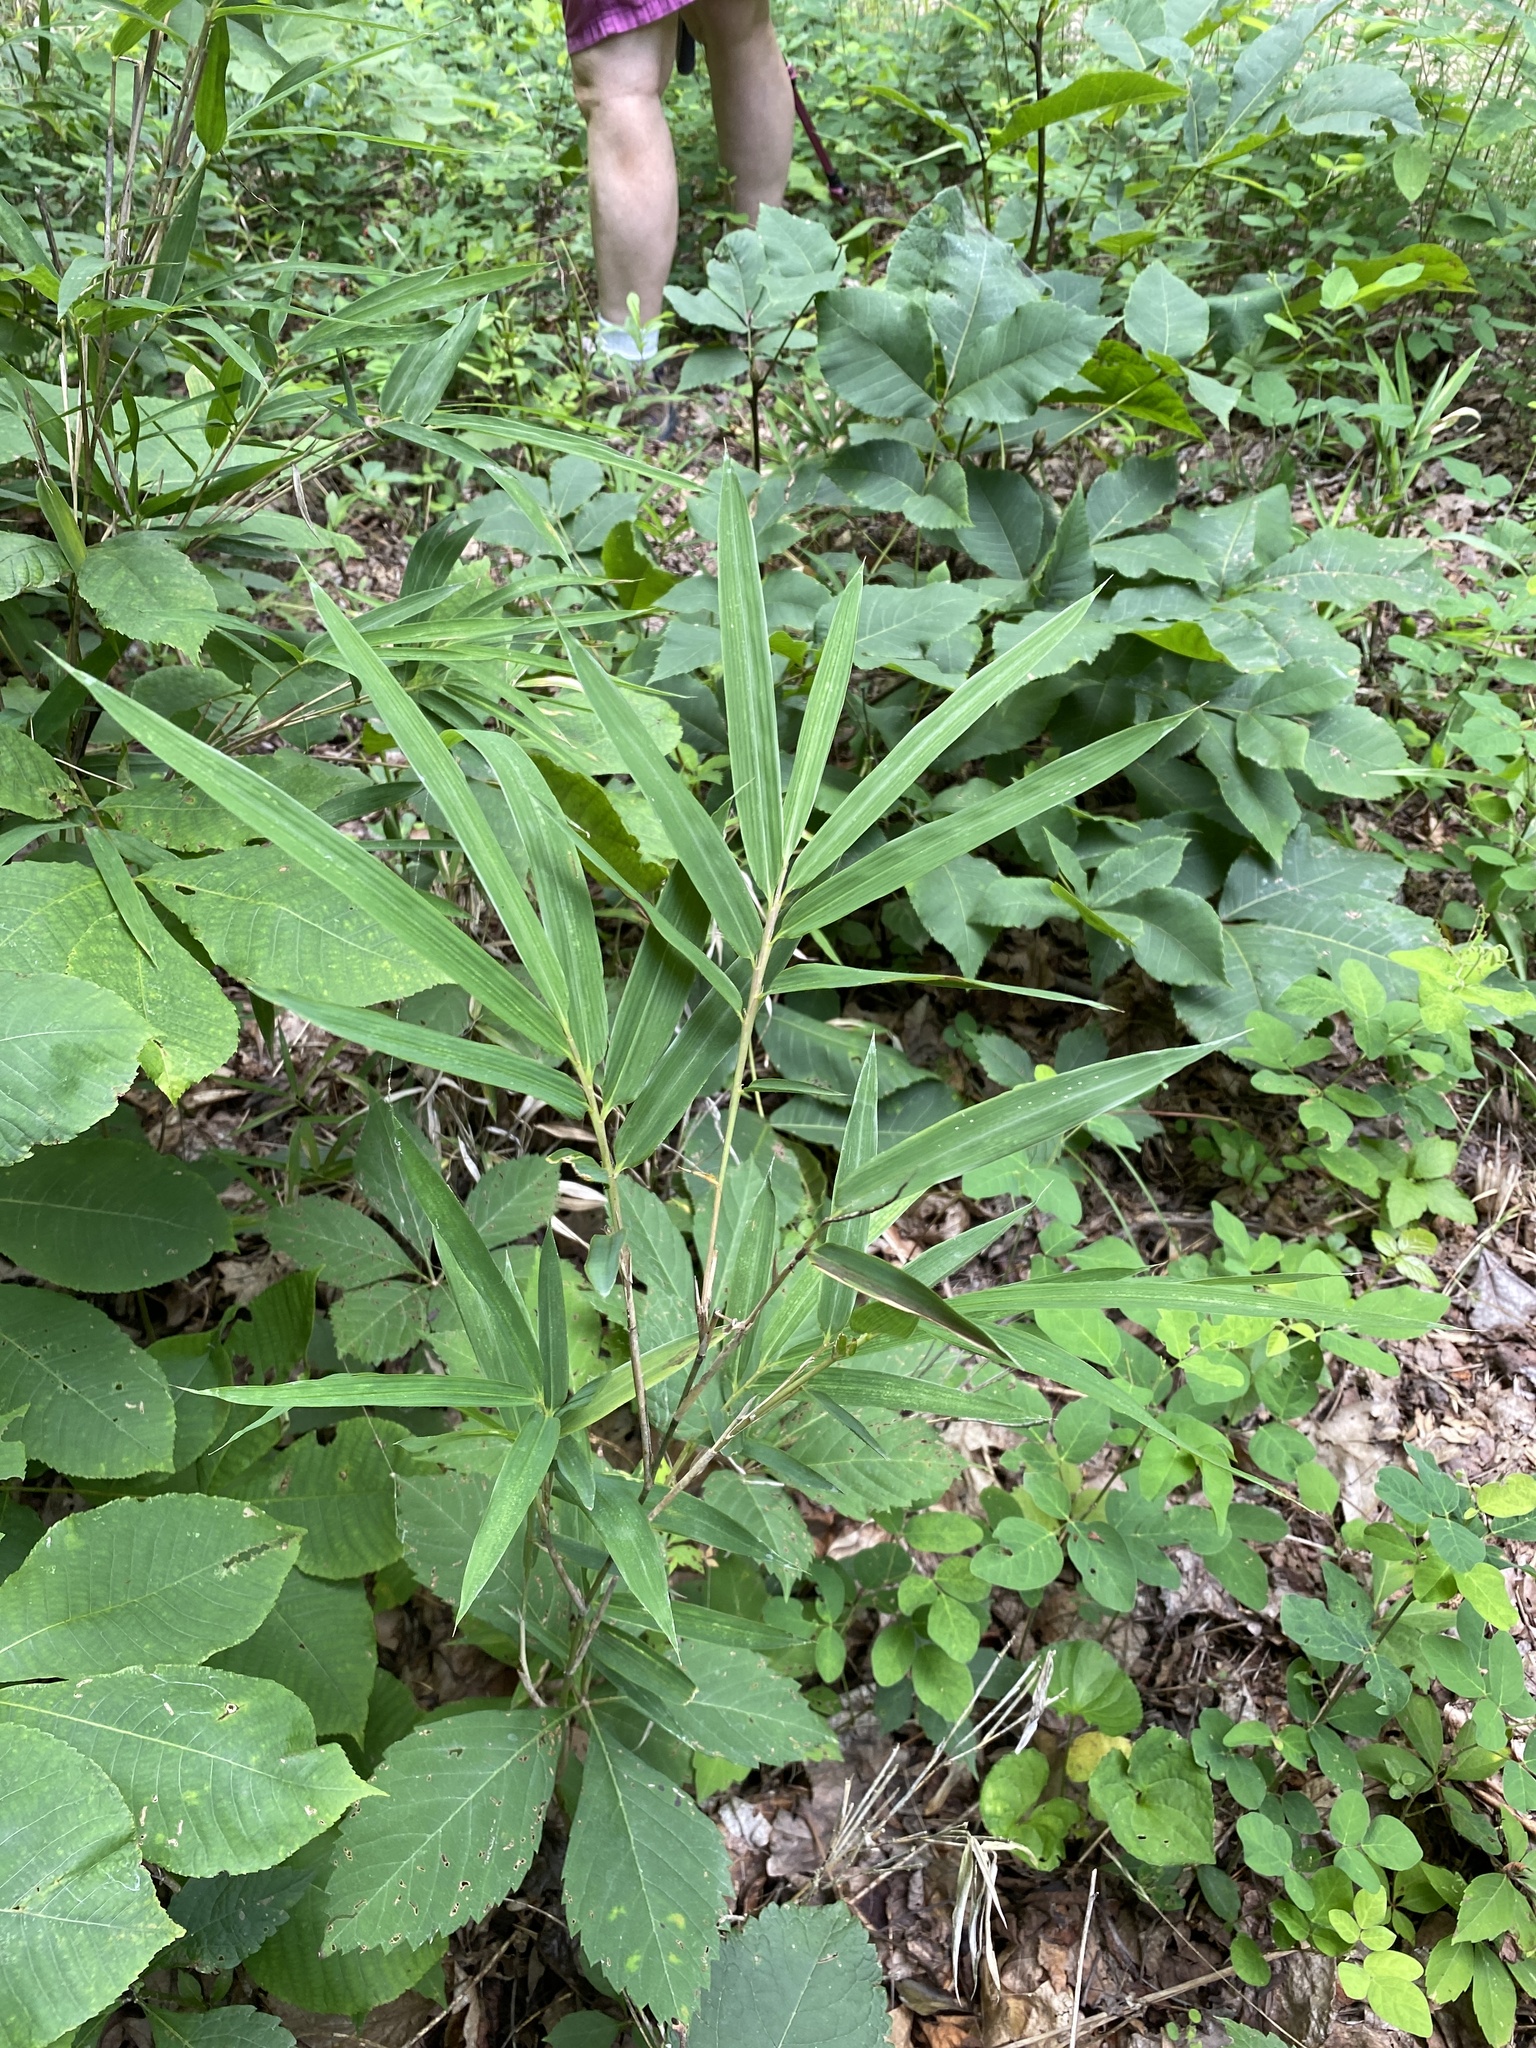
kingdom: Plantae
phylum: Tracheophyta
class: Liliopsida
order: Poales
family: Poaceae
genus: Arundinaria
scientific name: Arundinaria appalachiana
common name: Hill cane
